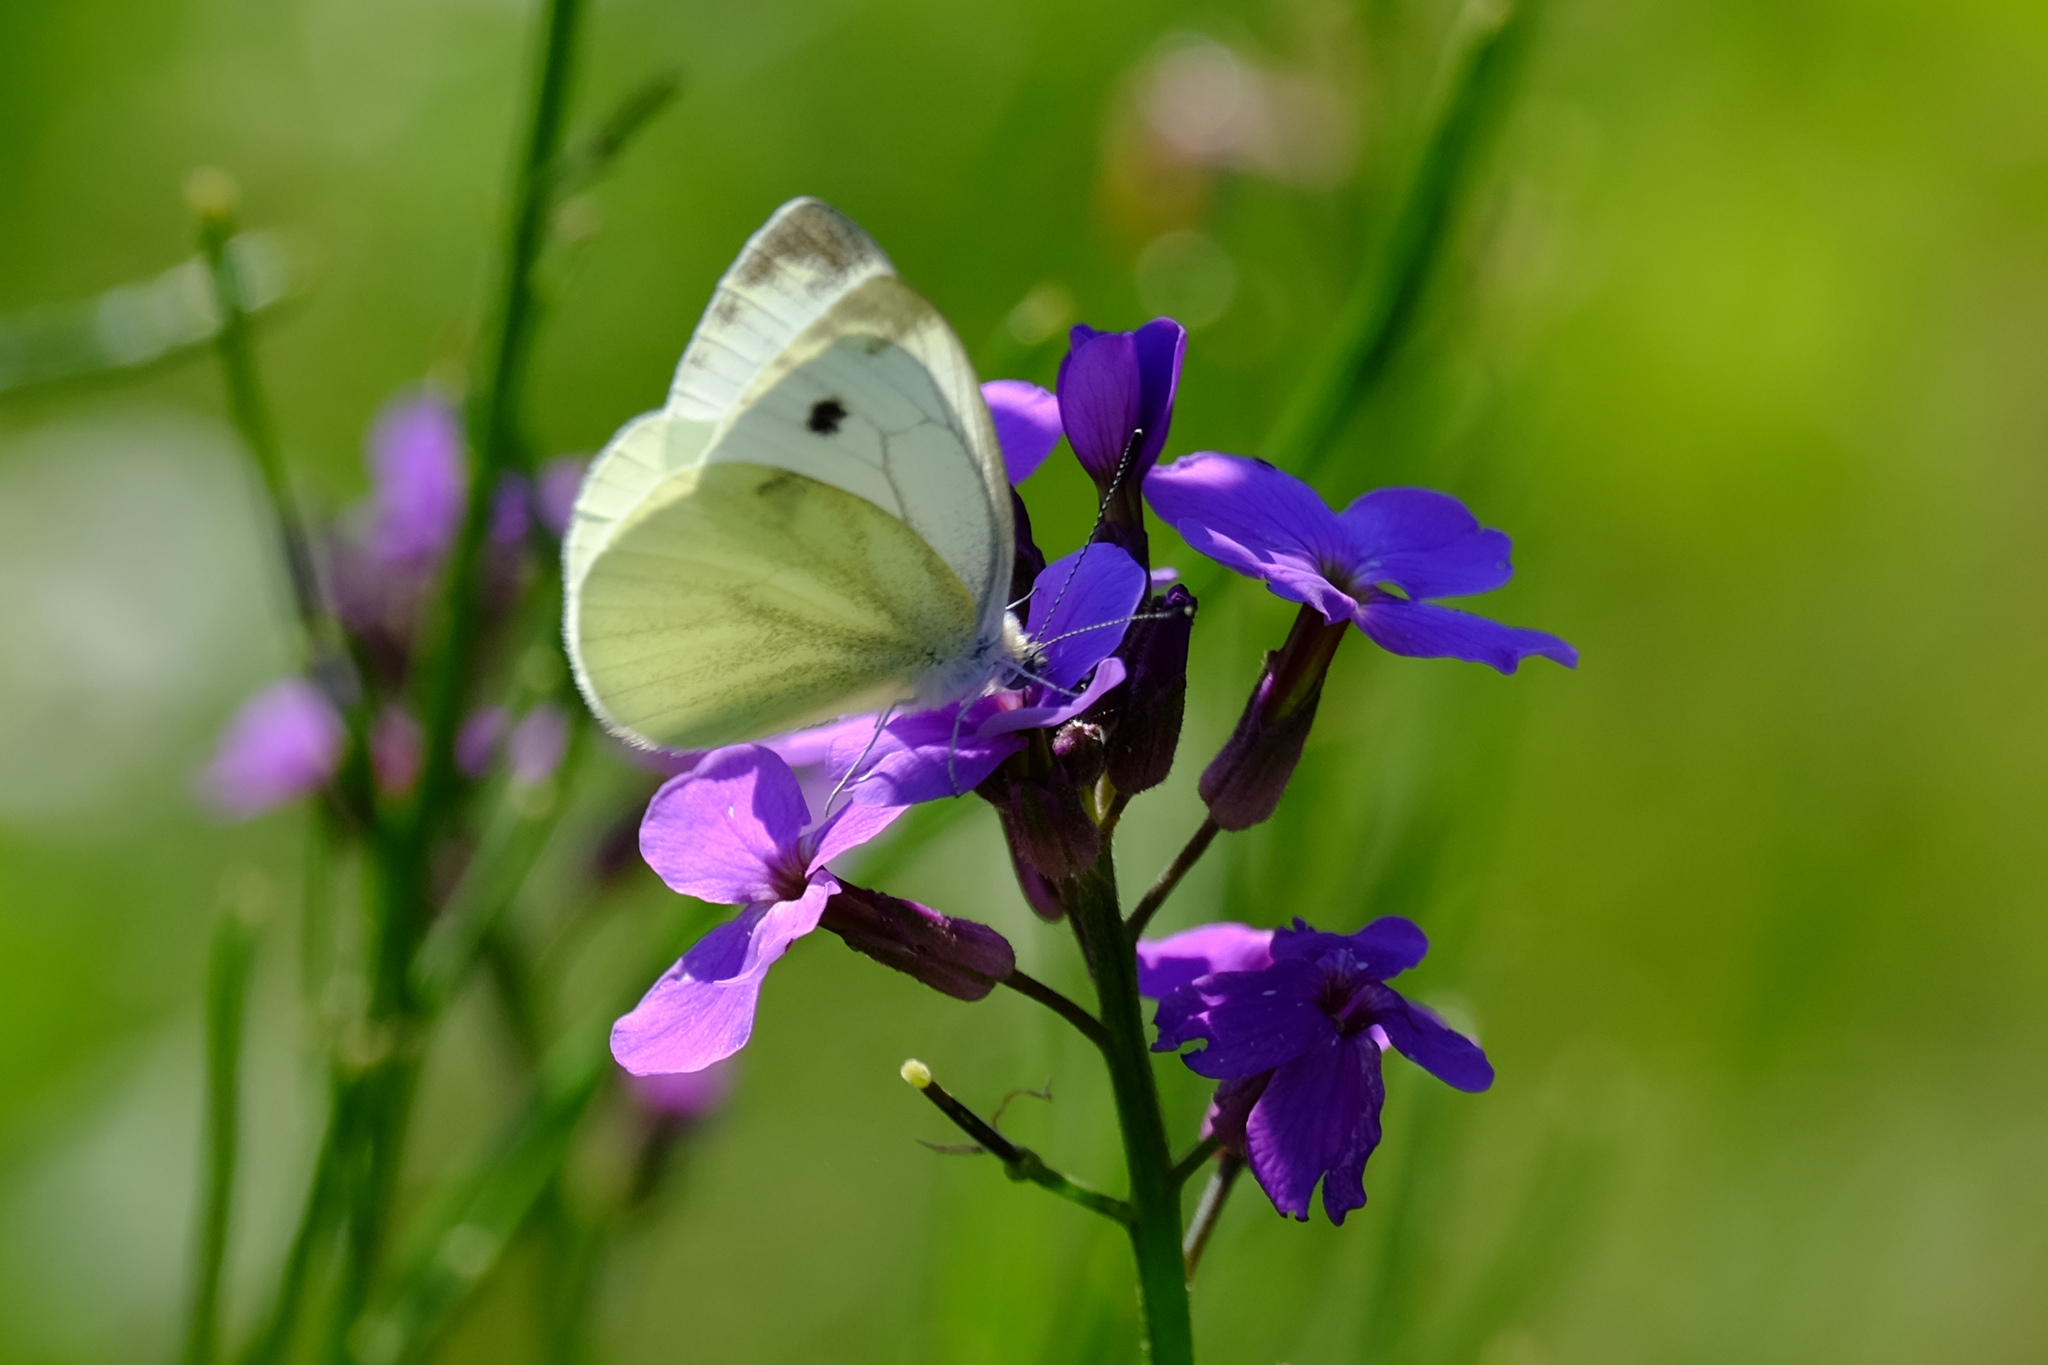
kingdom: Animalia
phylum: Arthropoda
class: Insecta
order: Lepidoptera
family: Pieridae
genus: Pieris
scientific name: Pieris napi
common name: Green-veined white
